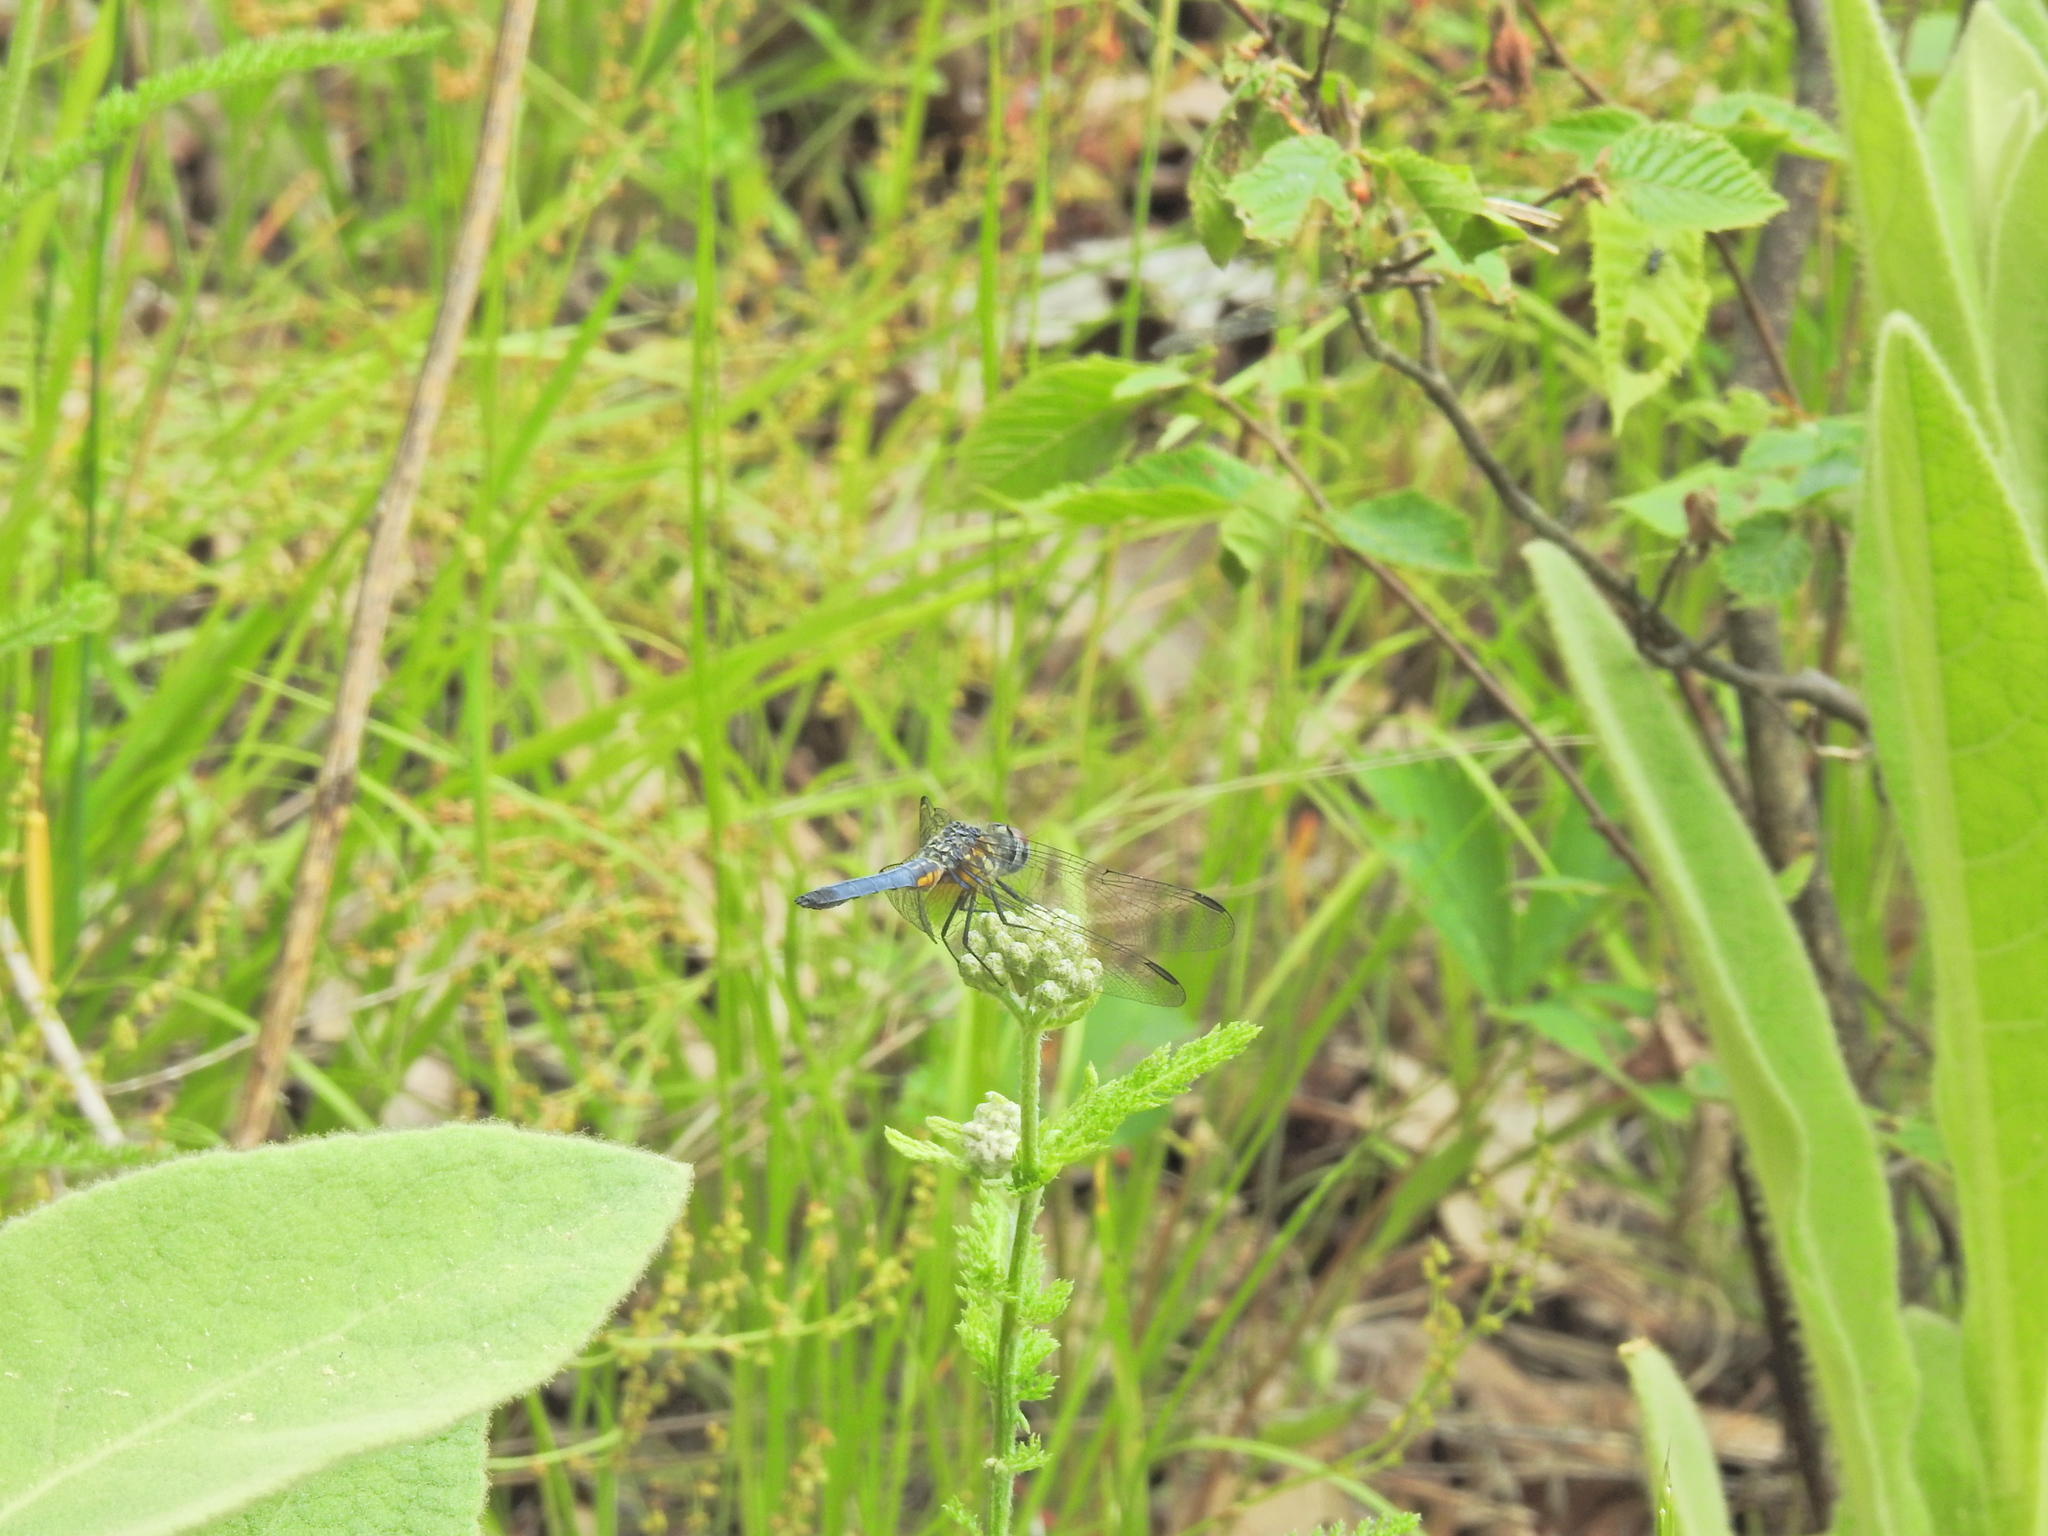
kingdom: Animalia
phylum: Arthropoda
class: Insecta
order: Odonata
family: Libellulidae
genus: Pachydiplax
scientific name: Pachydiplax longipennis
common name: Blue dasher
